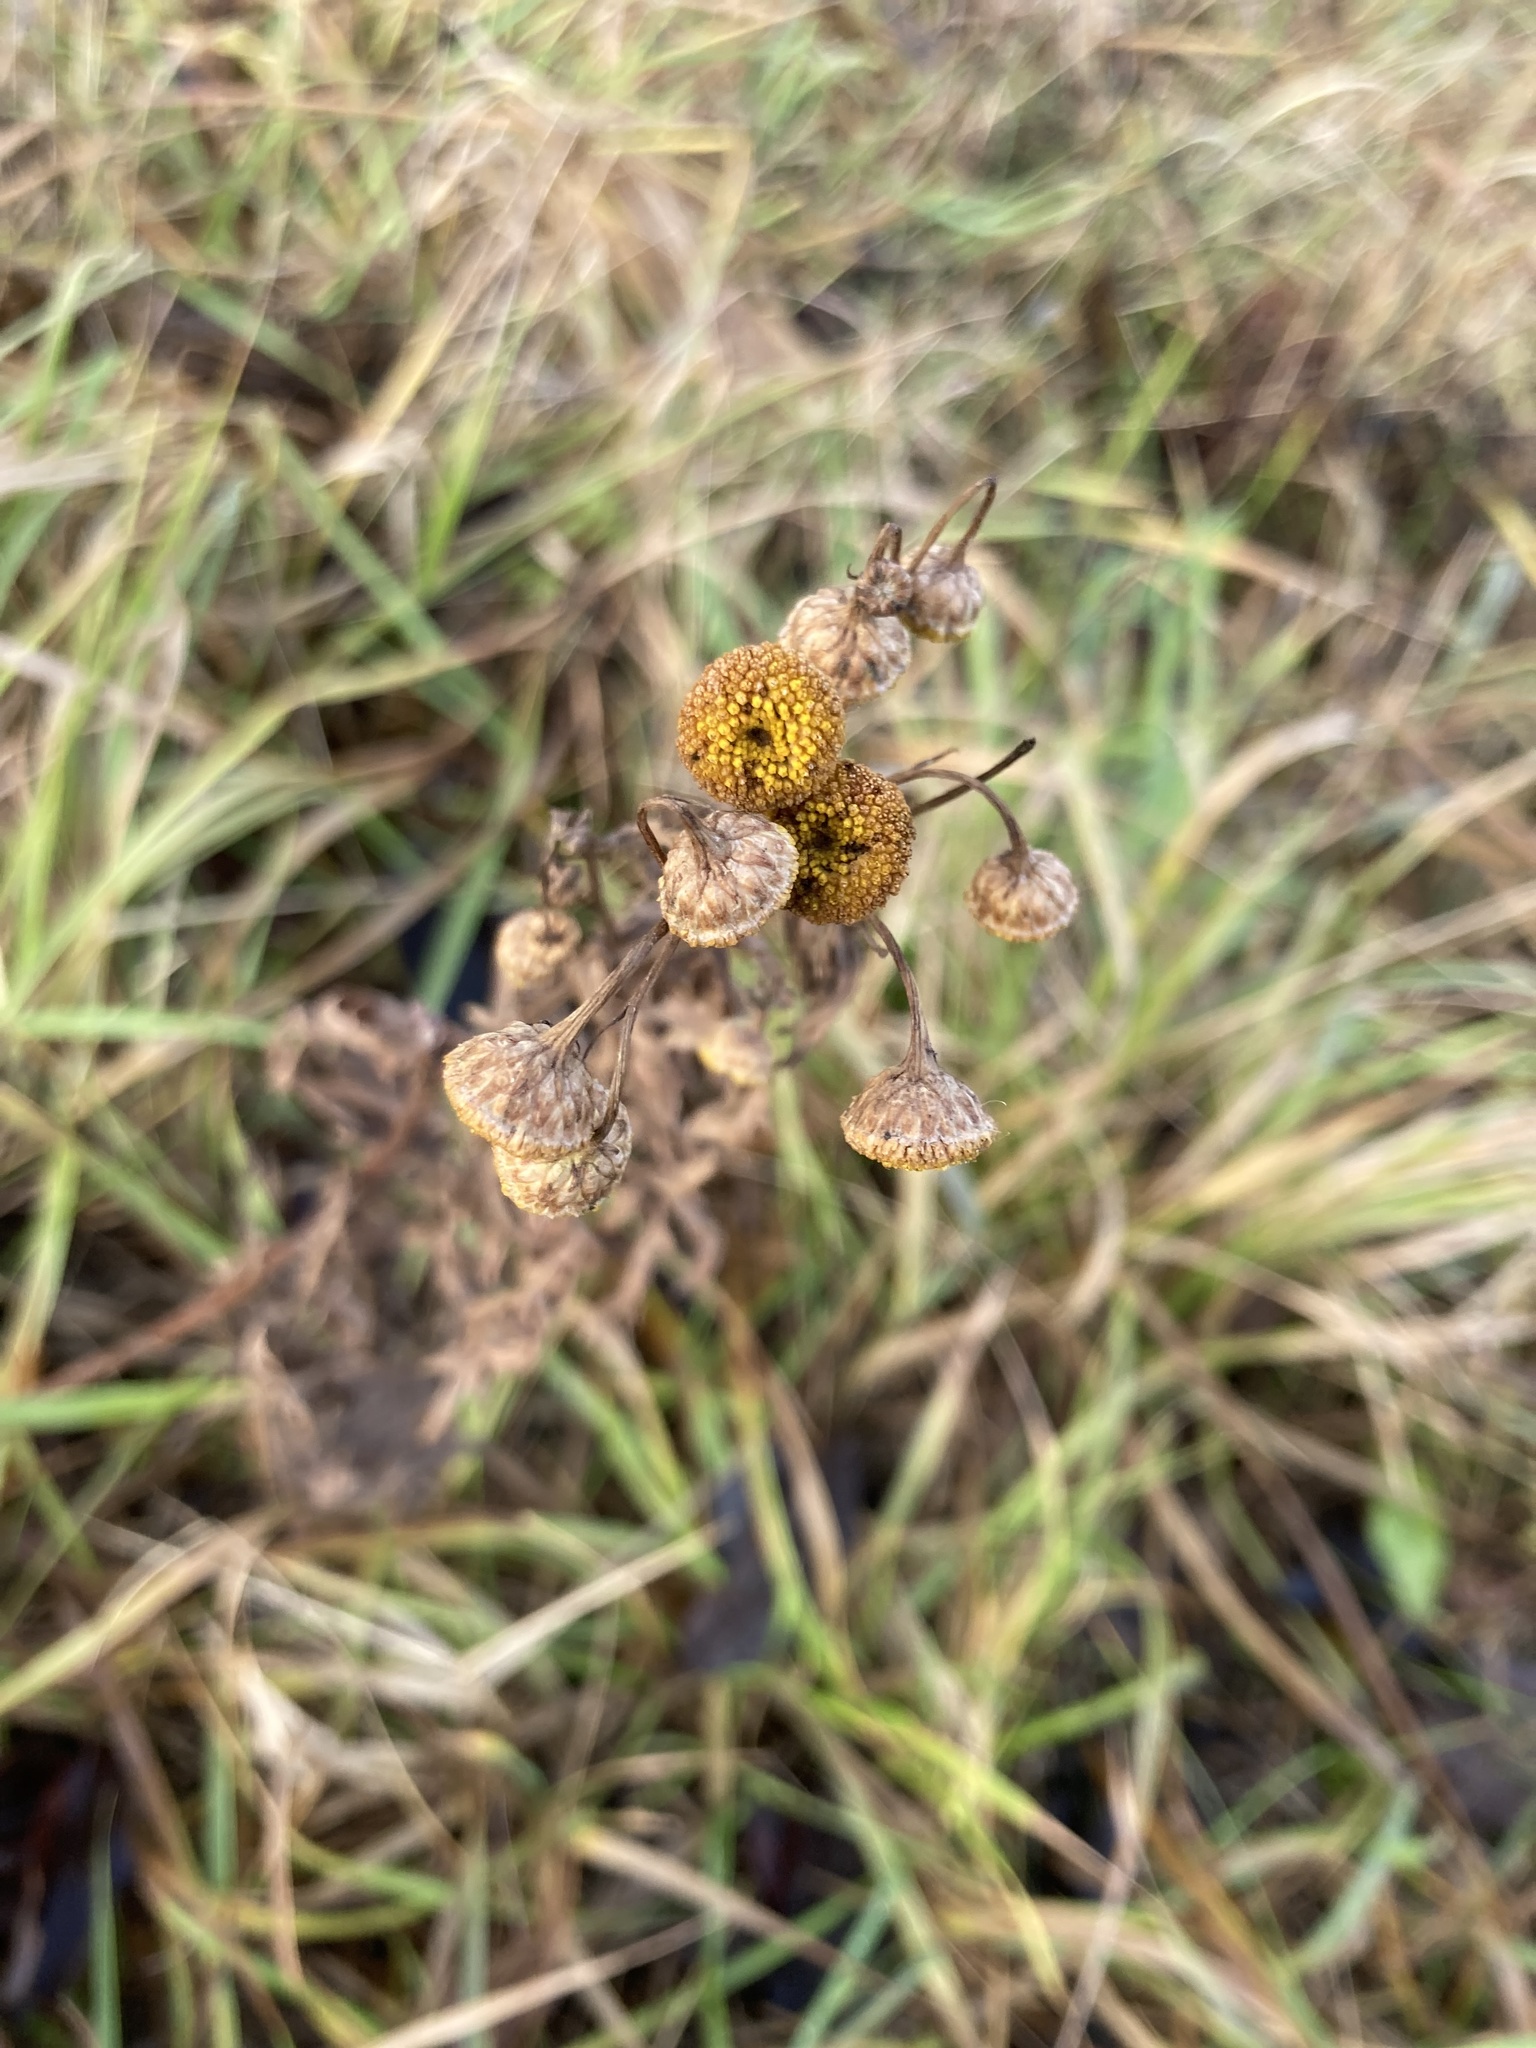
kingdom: Plantae
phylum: Tracheophyta
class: Magnoliopsida
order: Asterales
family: Asteraceae
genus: Tanacetum
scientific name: Tanacetum vulgare
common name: Common tansy
